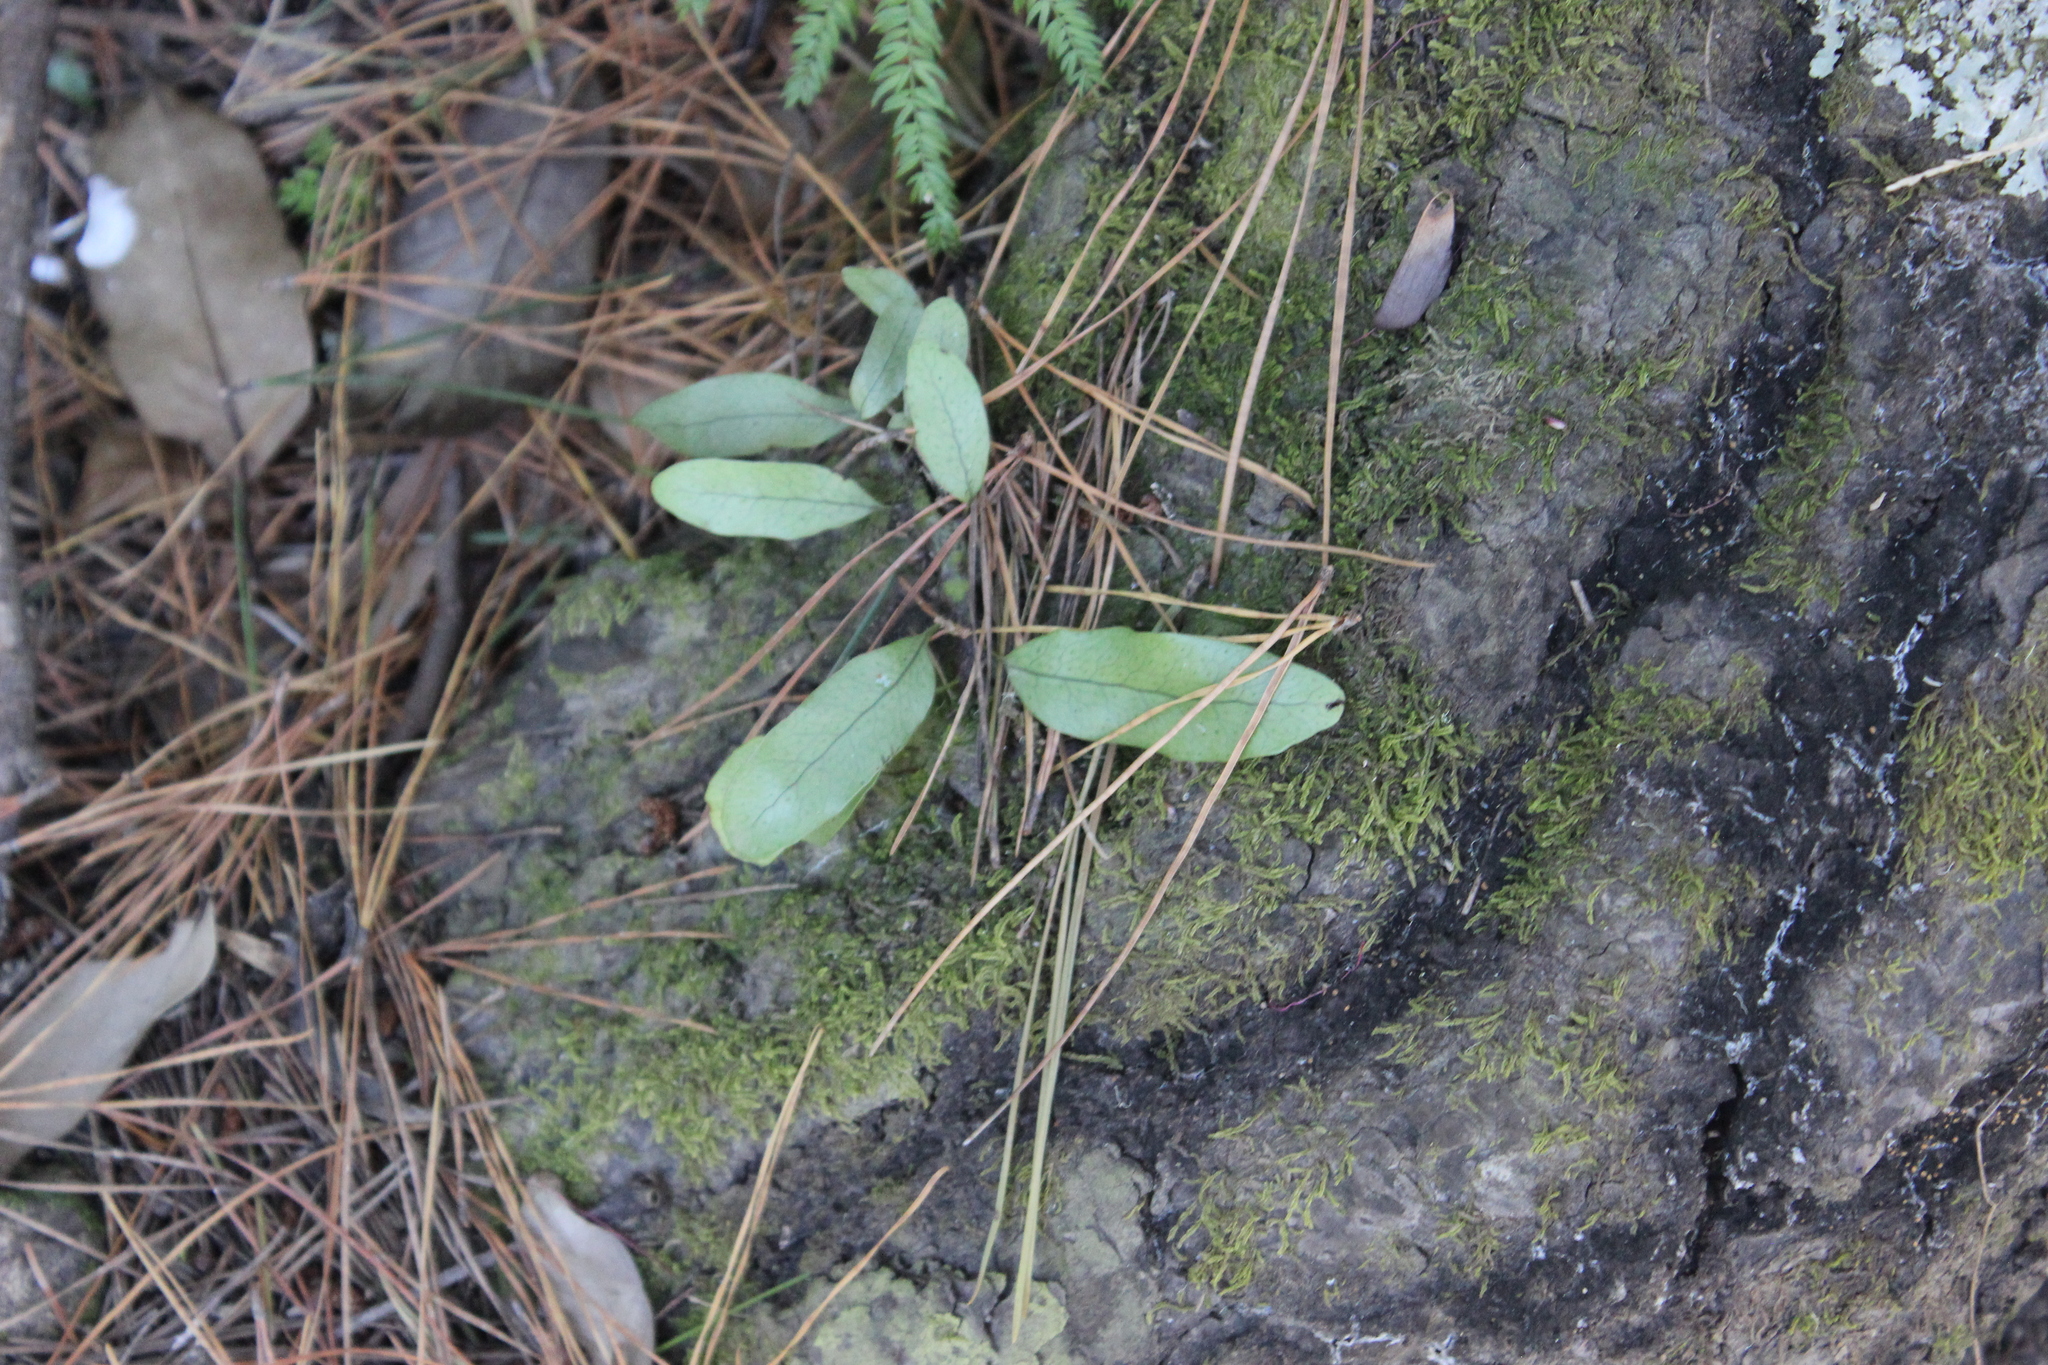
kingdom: Plantae
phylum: Tracheophyta
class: Polypodiopsida
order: Polypodiales
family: Polypodiaceae
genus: Lecanopteris
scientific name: Lecanopteris pustulata
